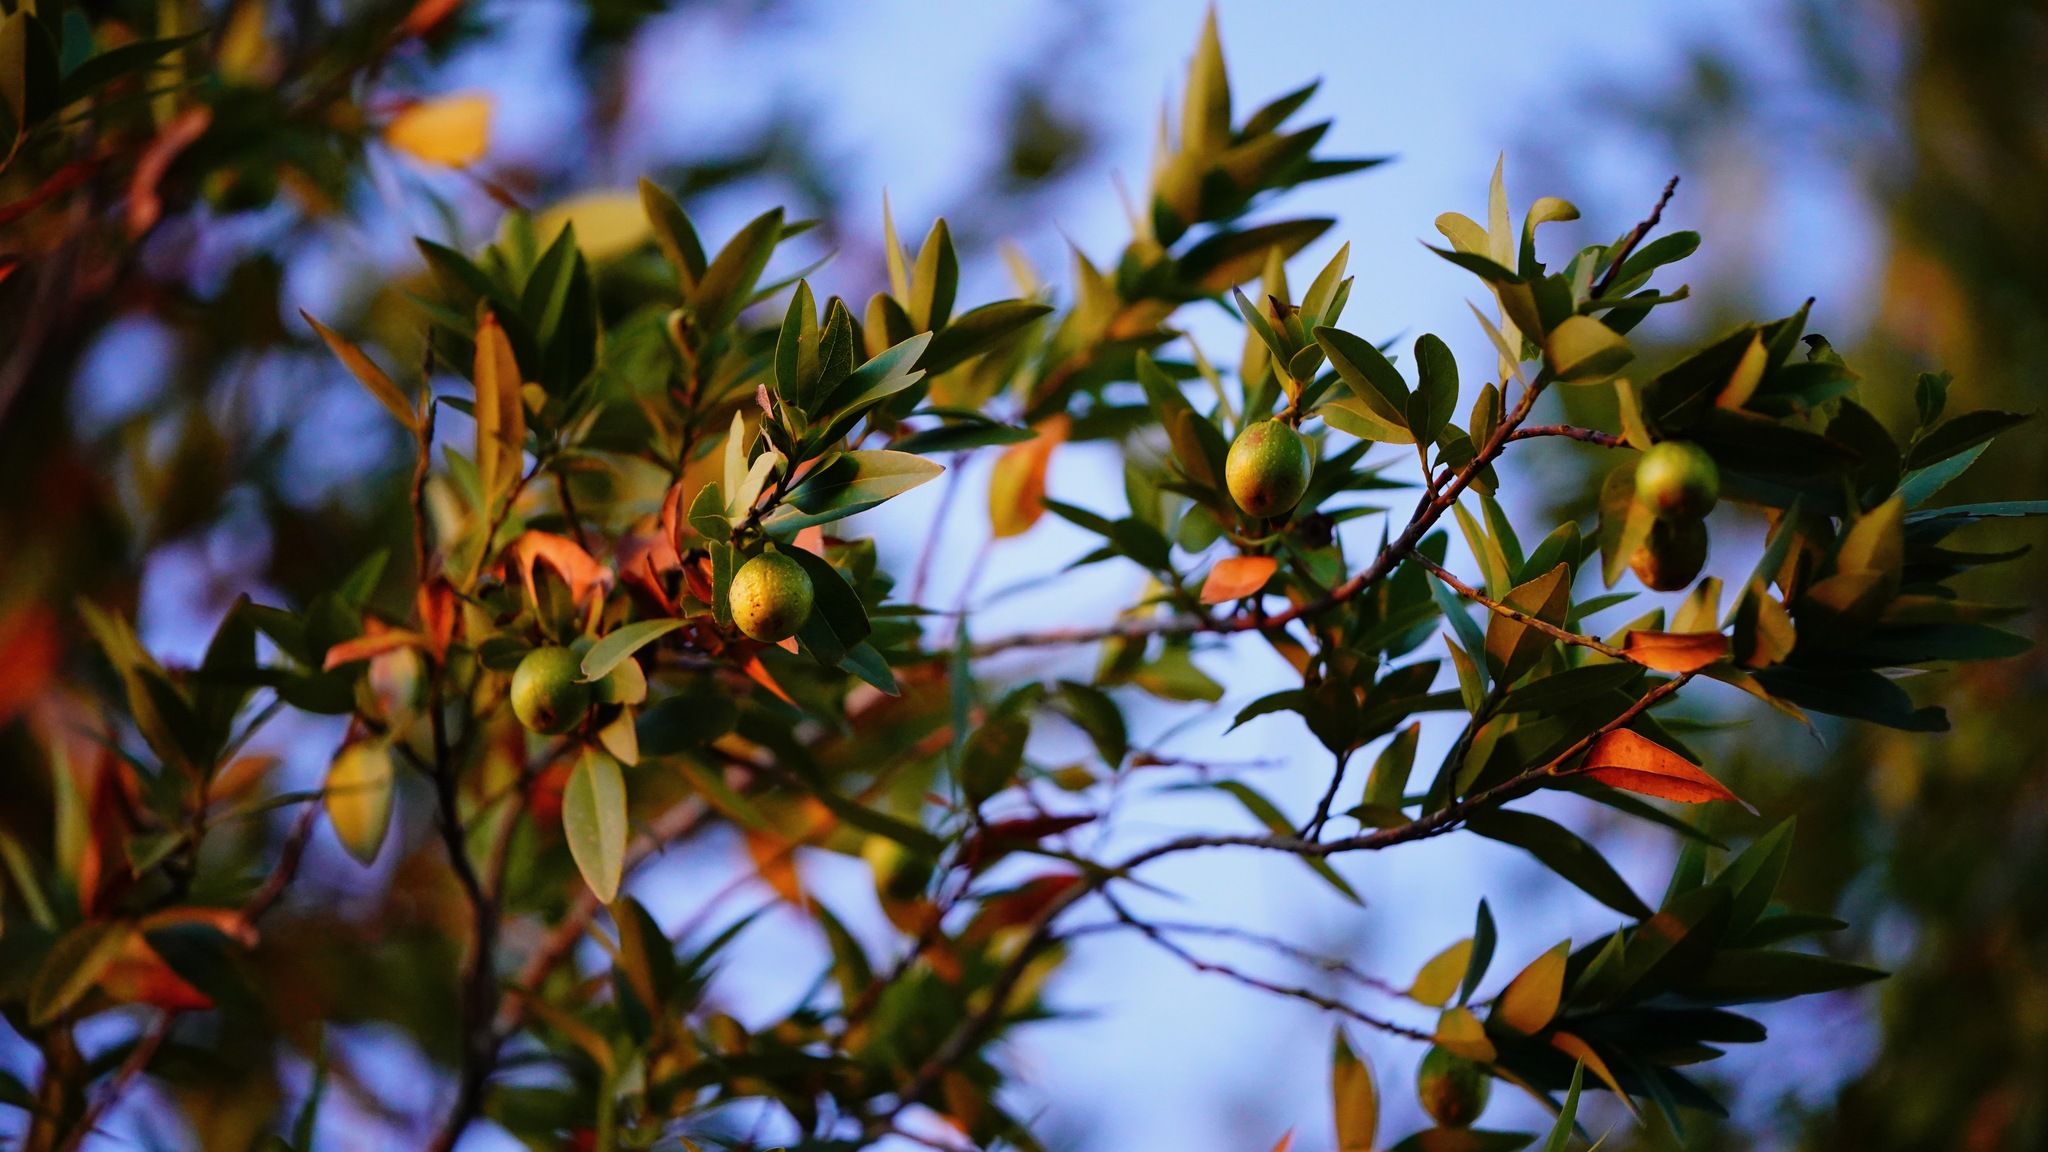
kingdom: Plantae
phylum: Tracheophyta
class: Magnoliopsida
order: Laurales
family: Lauraceae
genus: Umbellularia
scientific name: Umbellularia californica
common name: California bay
